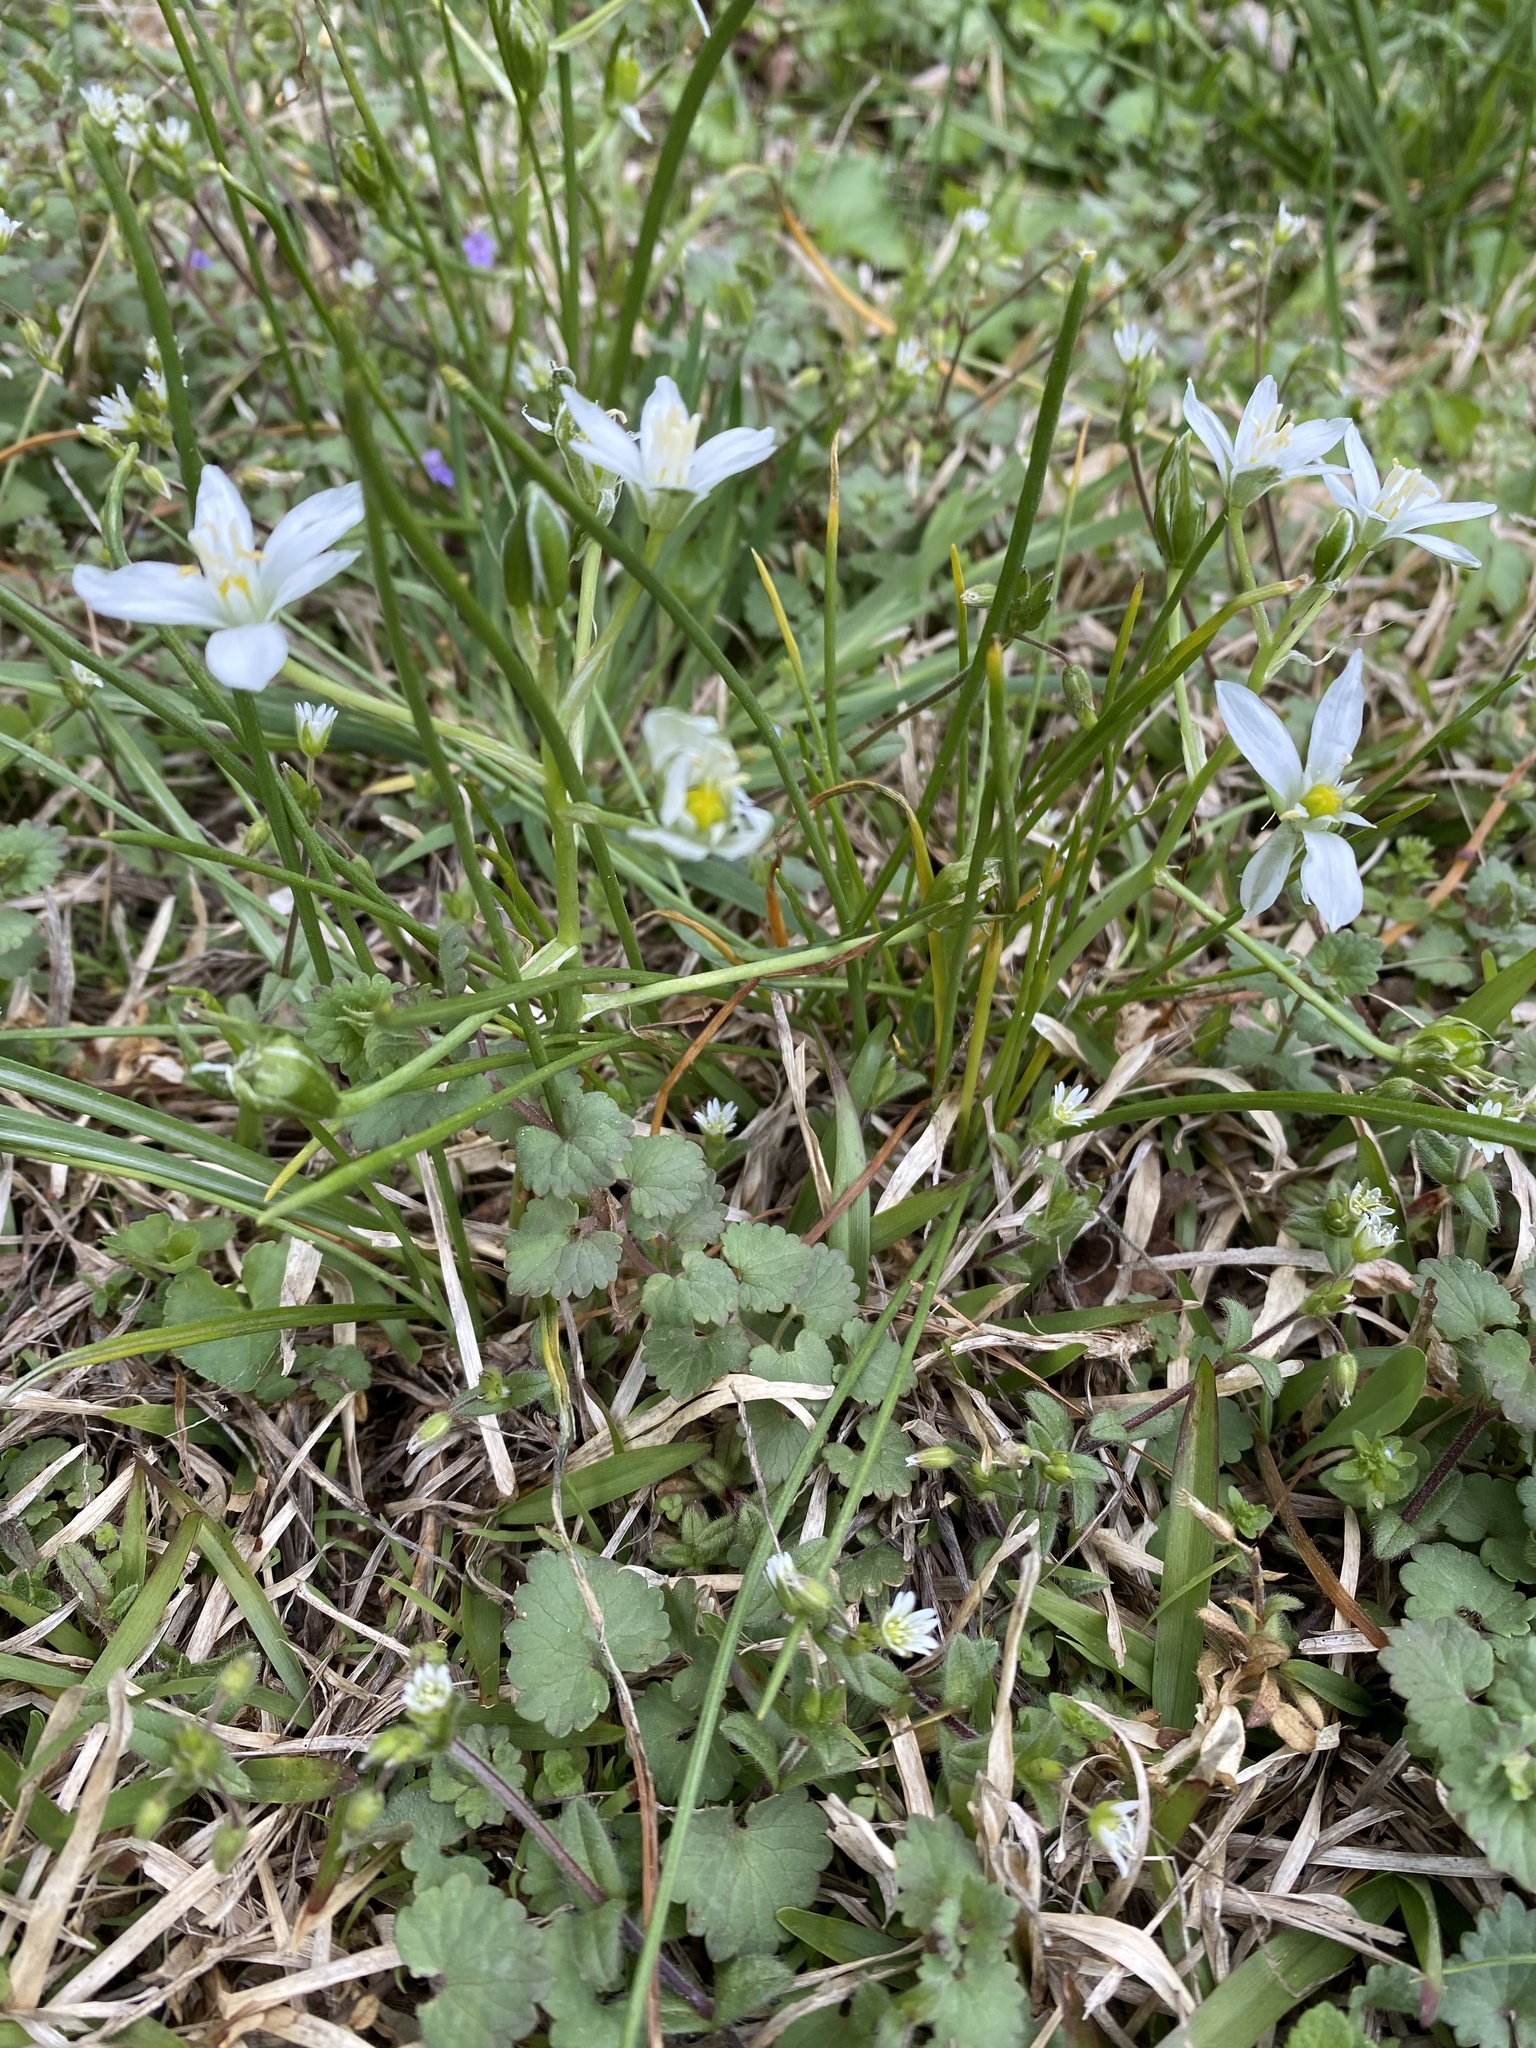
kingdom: Plantae
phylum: Tracheophyta
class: Liliopsida
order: Asparagales
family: Asparagaceae
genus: Ornithogalum
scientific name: Ornithogalum umbellatum
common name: Garden star-of-bethlehem
